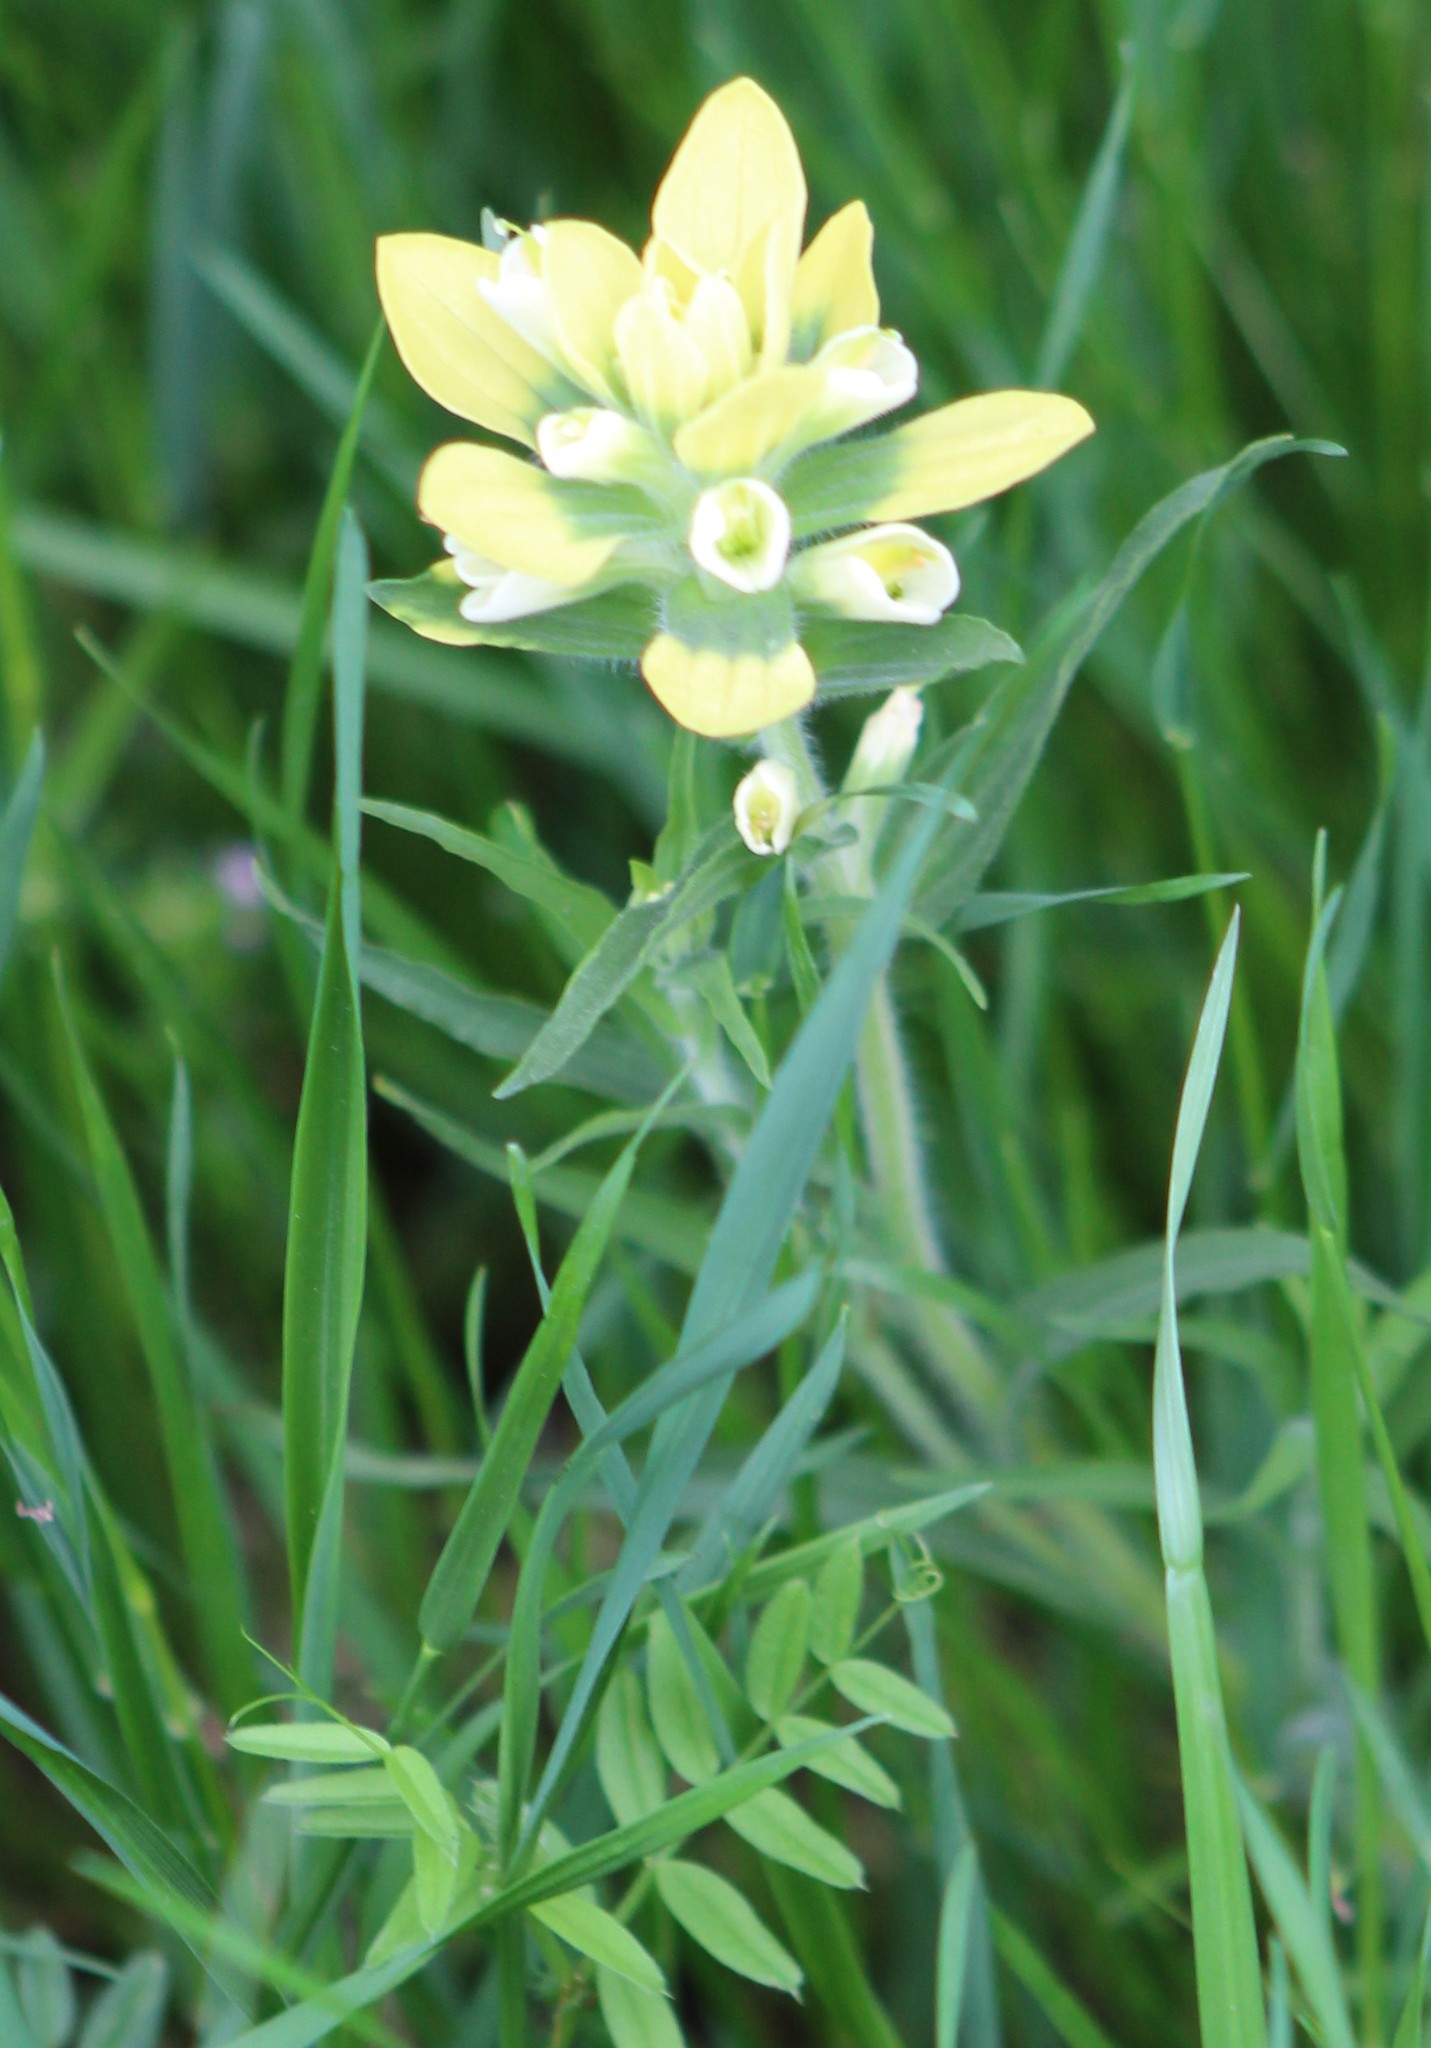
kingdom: Plantae
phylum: Tracheophyta
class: Magnoliopsida
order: Lamiales
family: Orobanchaceae
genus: Castilleja
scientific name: Castilleja indivisa
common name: Texas paintbrush
